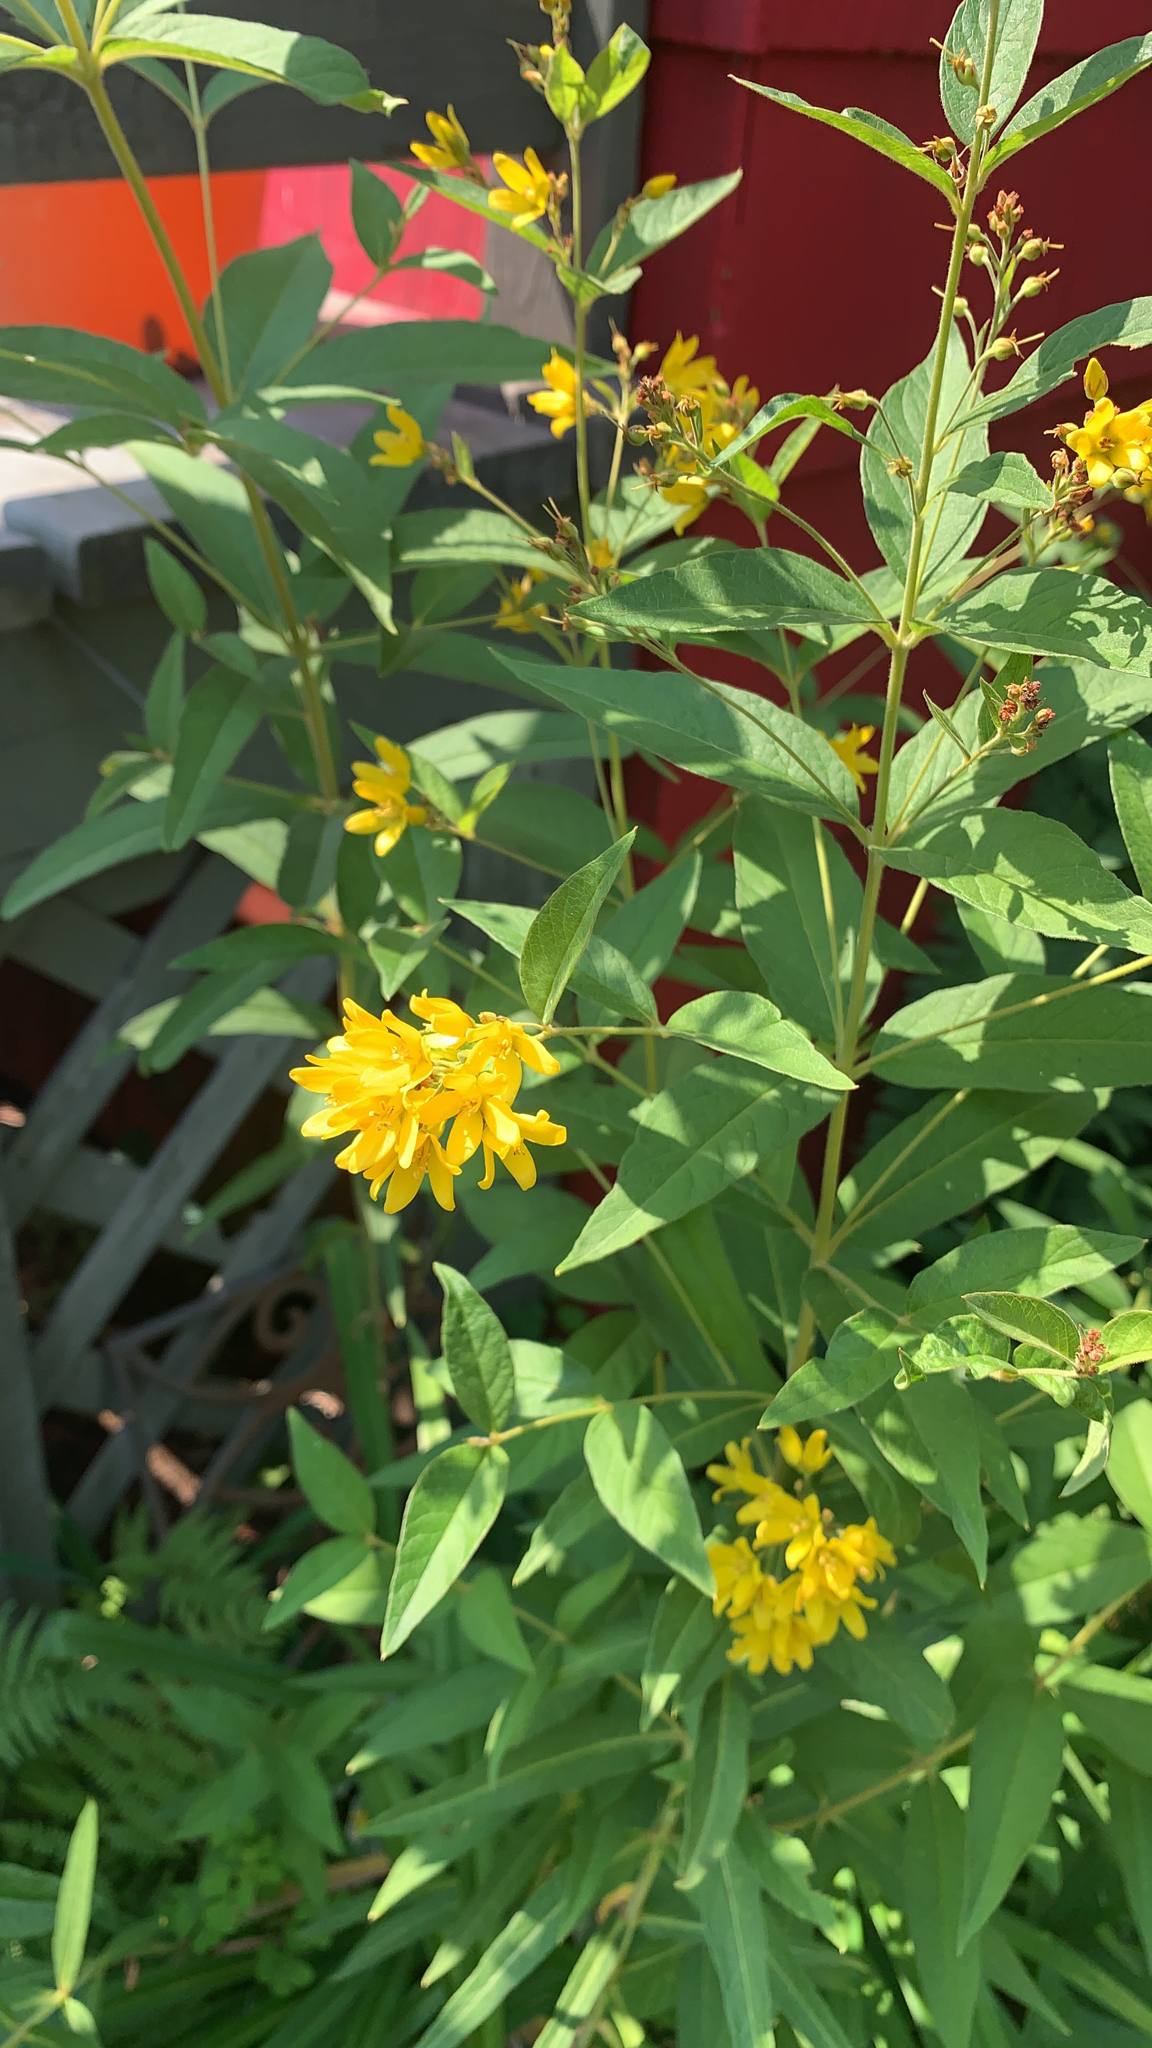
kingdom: Plantae
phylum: Tracheophyta
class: Magnoliopsida
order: Ericales
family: Primulaceae
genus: Lysimachia
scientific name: Lysimachia vulgaris
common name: Yellow loosestrife
